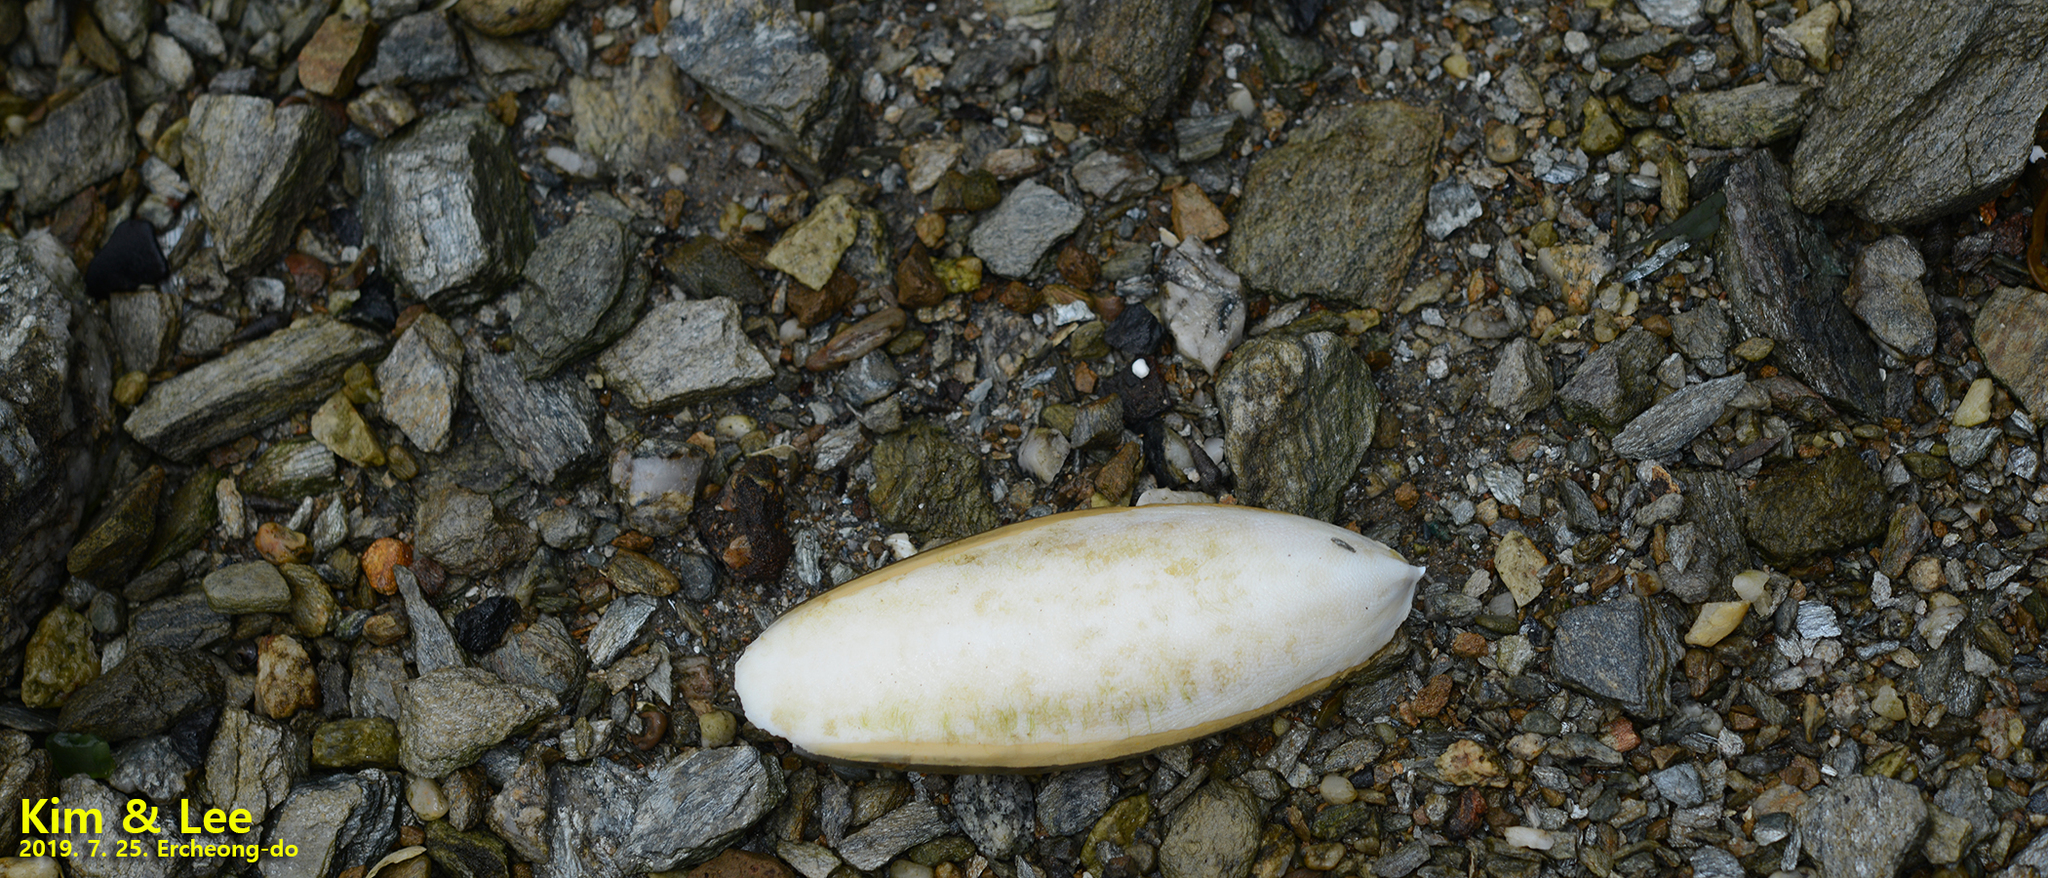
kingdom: Animalia
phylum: Mollusca
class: Cephalopoda
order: Sepiida
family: Sepiidae
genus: Sepiella
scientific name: Sepiella japonica
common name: Japanese spineless cuttlefish
